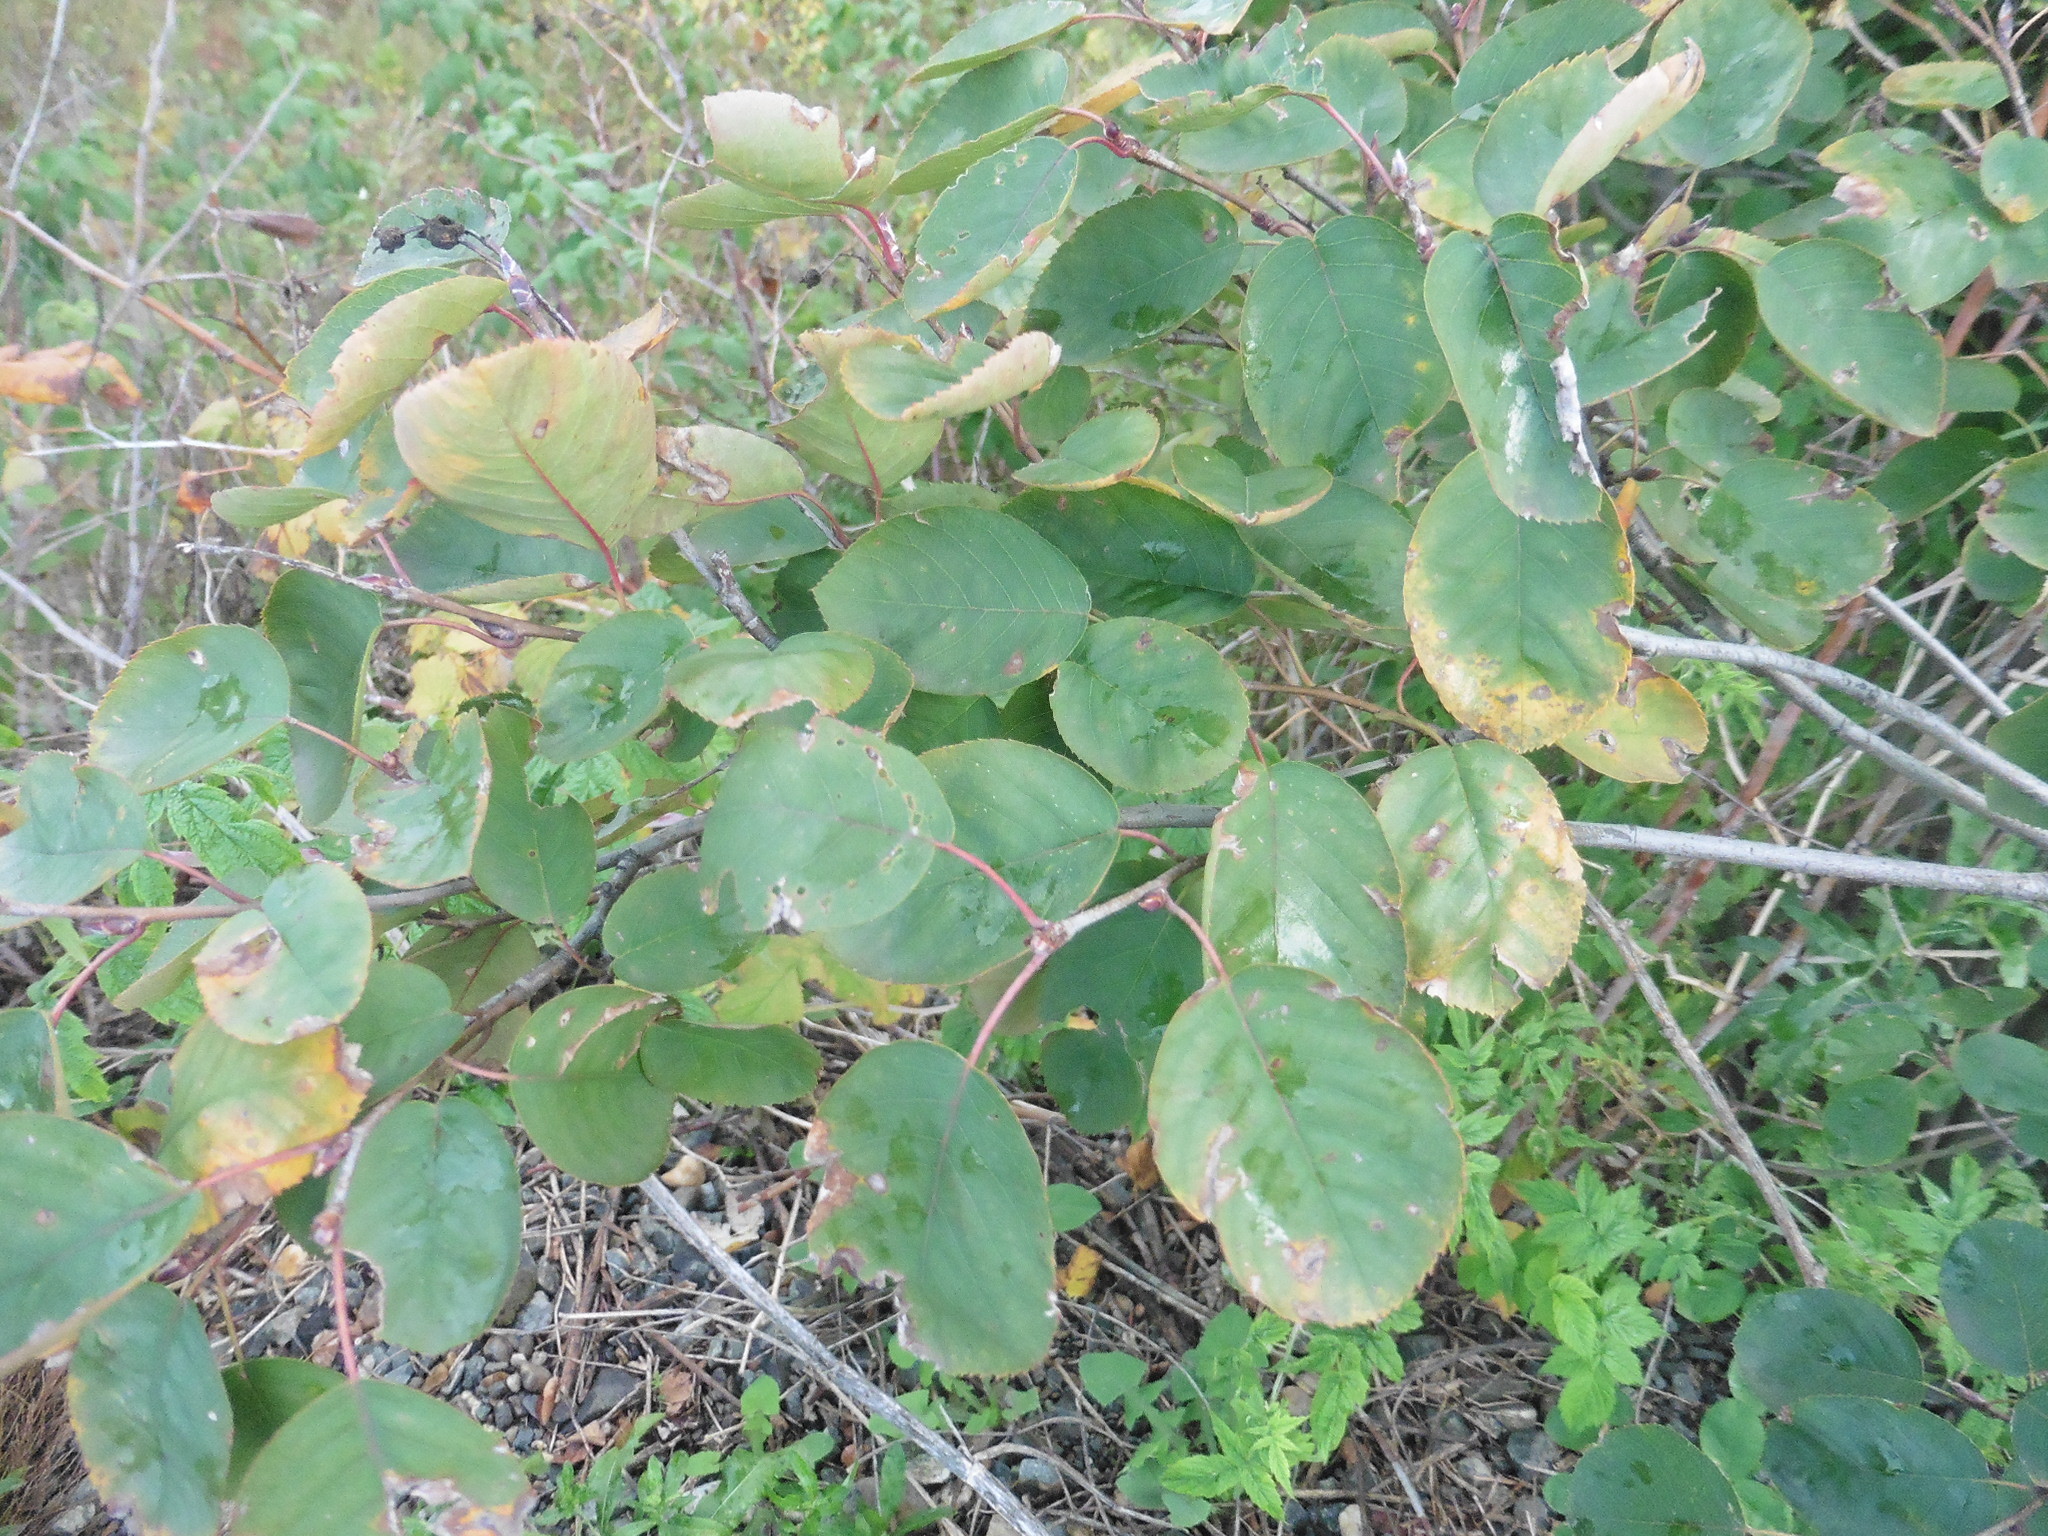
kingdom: Plantae
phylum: Tracheophyta
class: Magnoliopsida
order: Rosales
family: Rosaceae
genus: Amelanchier
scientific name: Amelanchier
